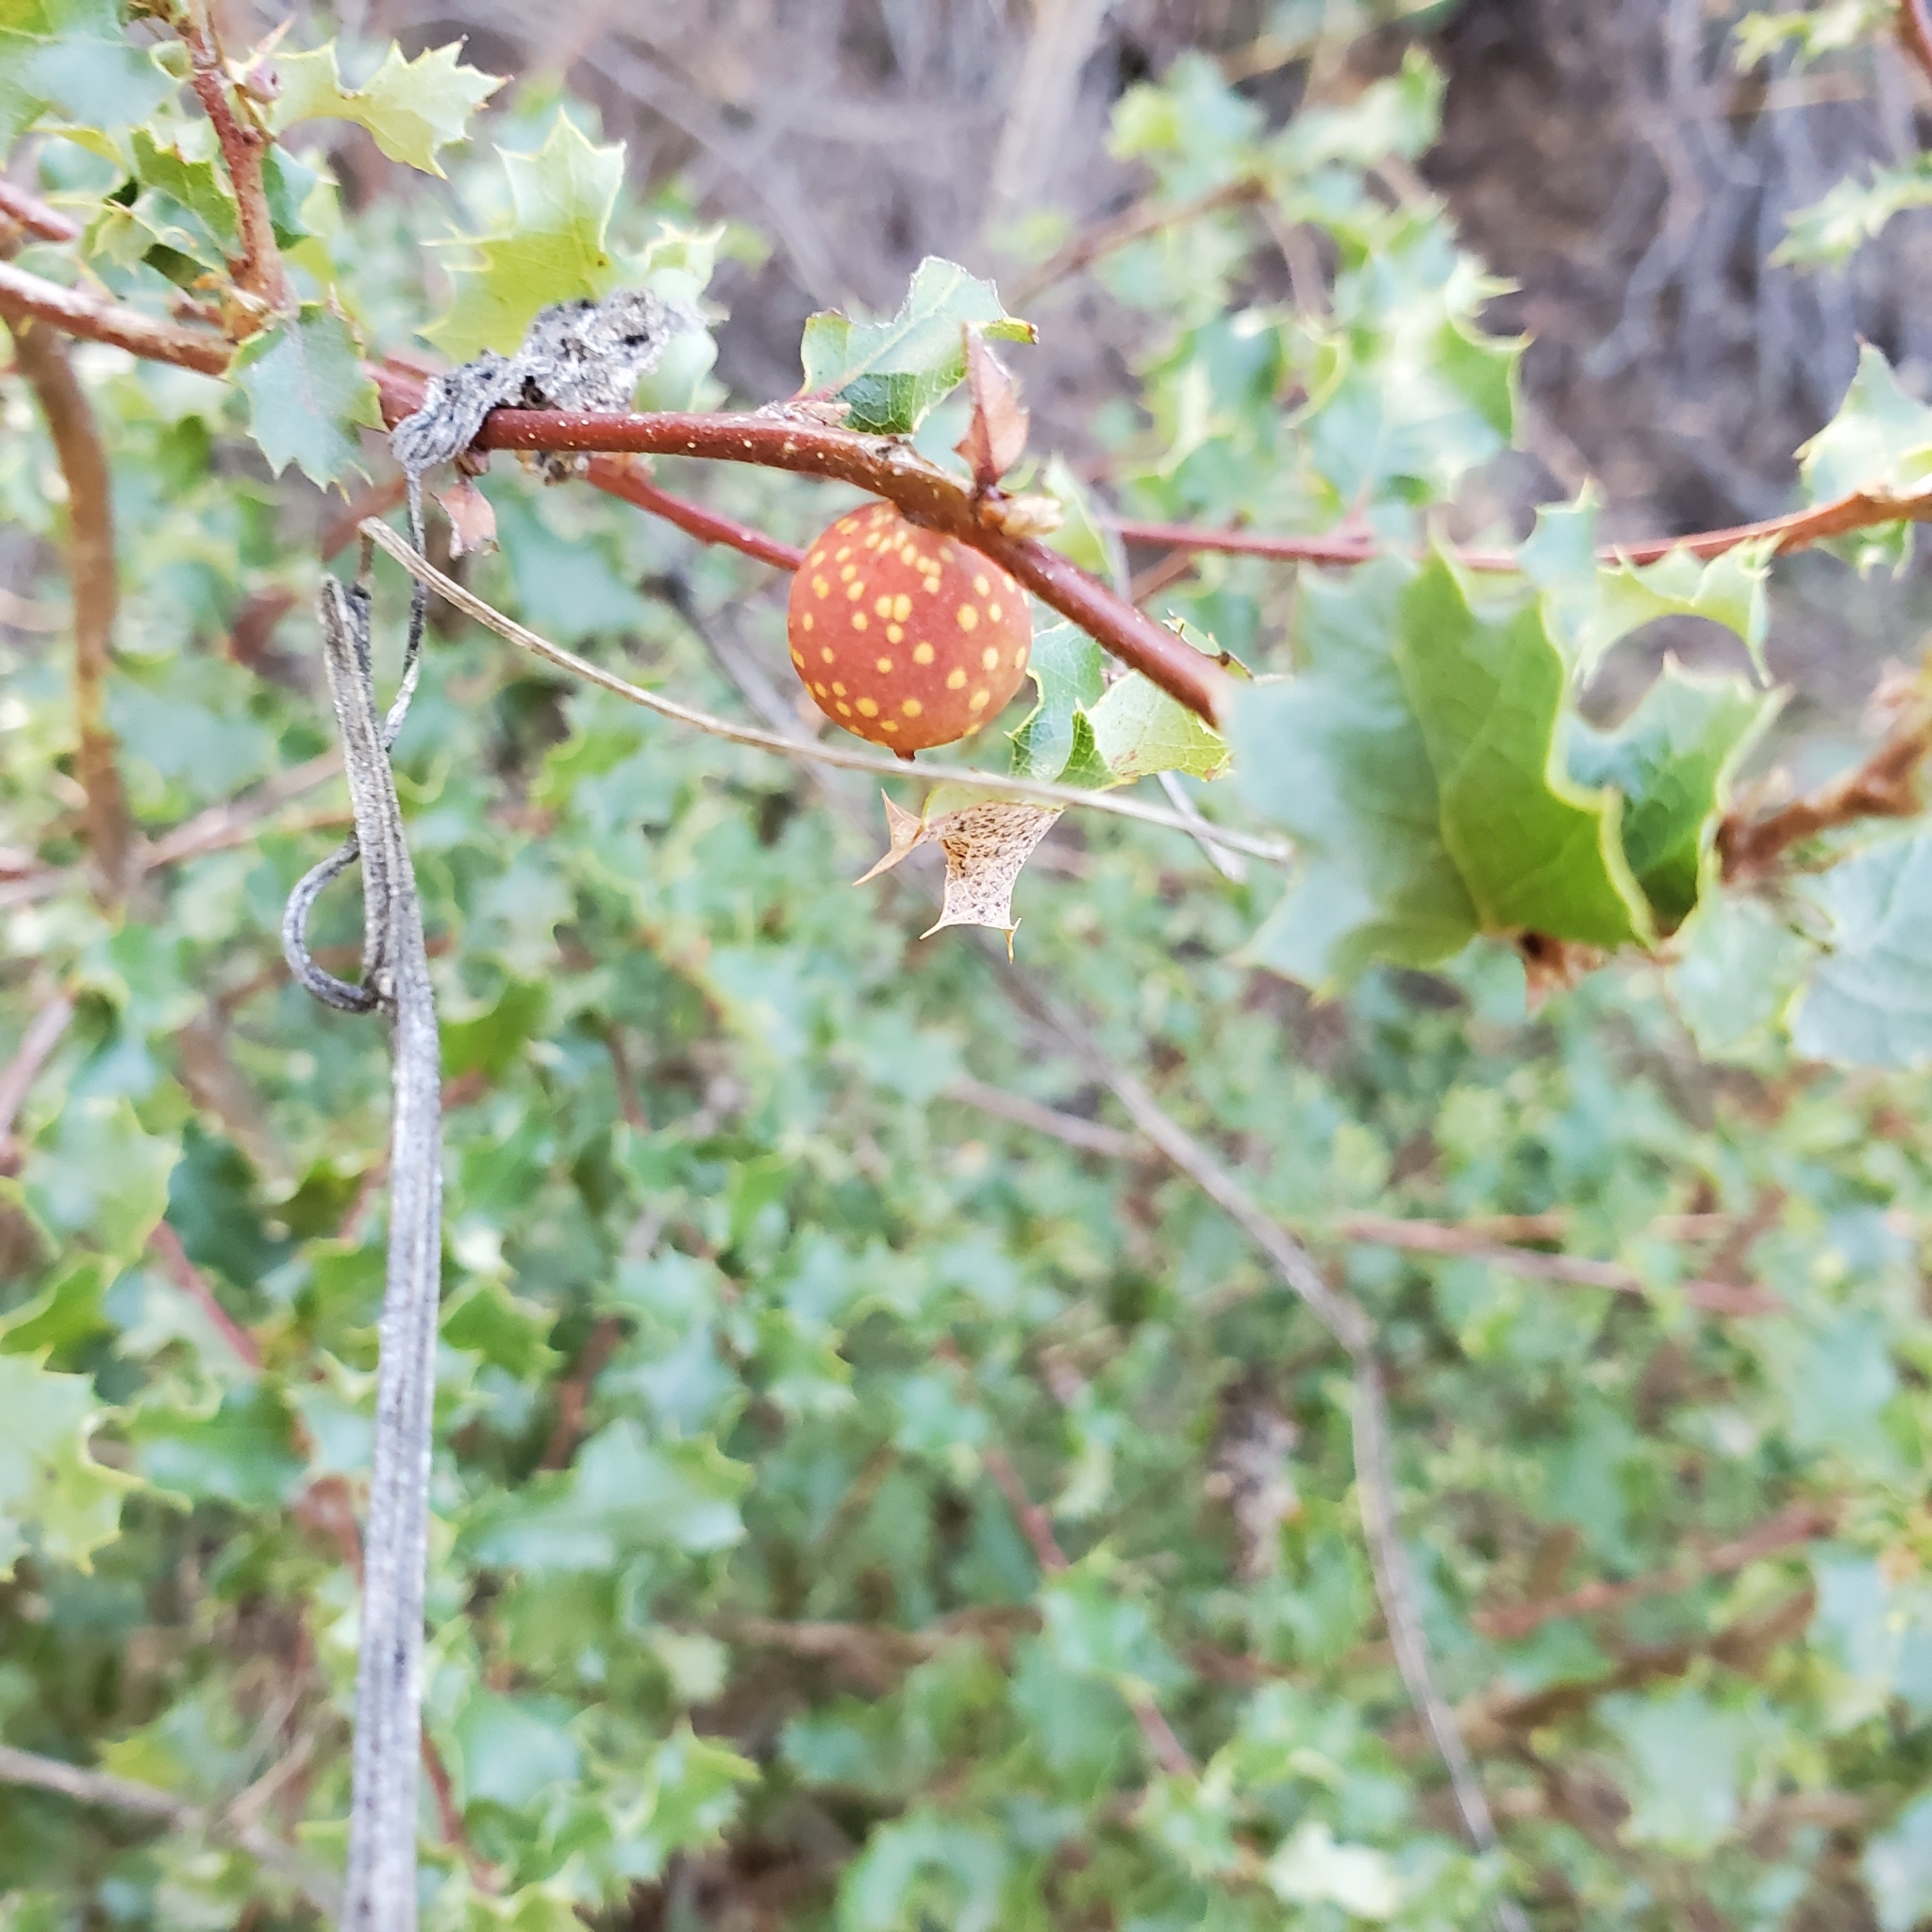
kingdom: Animalia
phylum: Arthropoda
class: Insecta
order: Hymenoptera
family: Cynipidae
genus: Burnettweldia
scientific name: Burnettweldia
